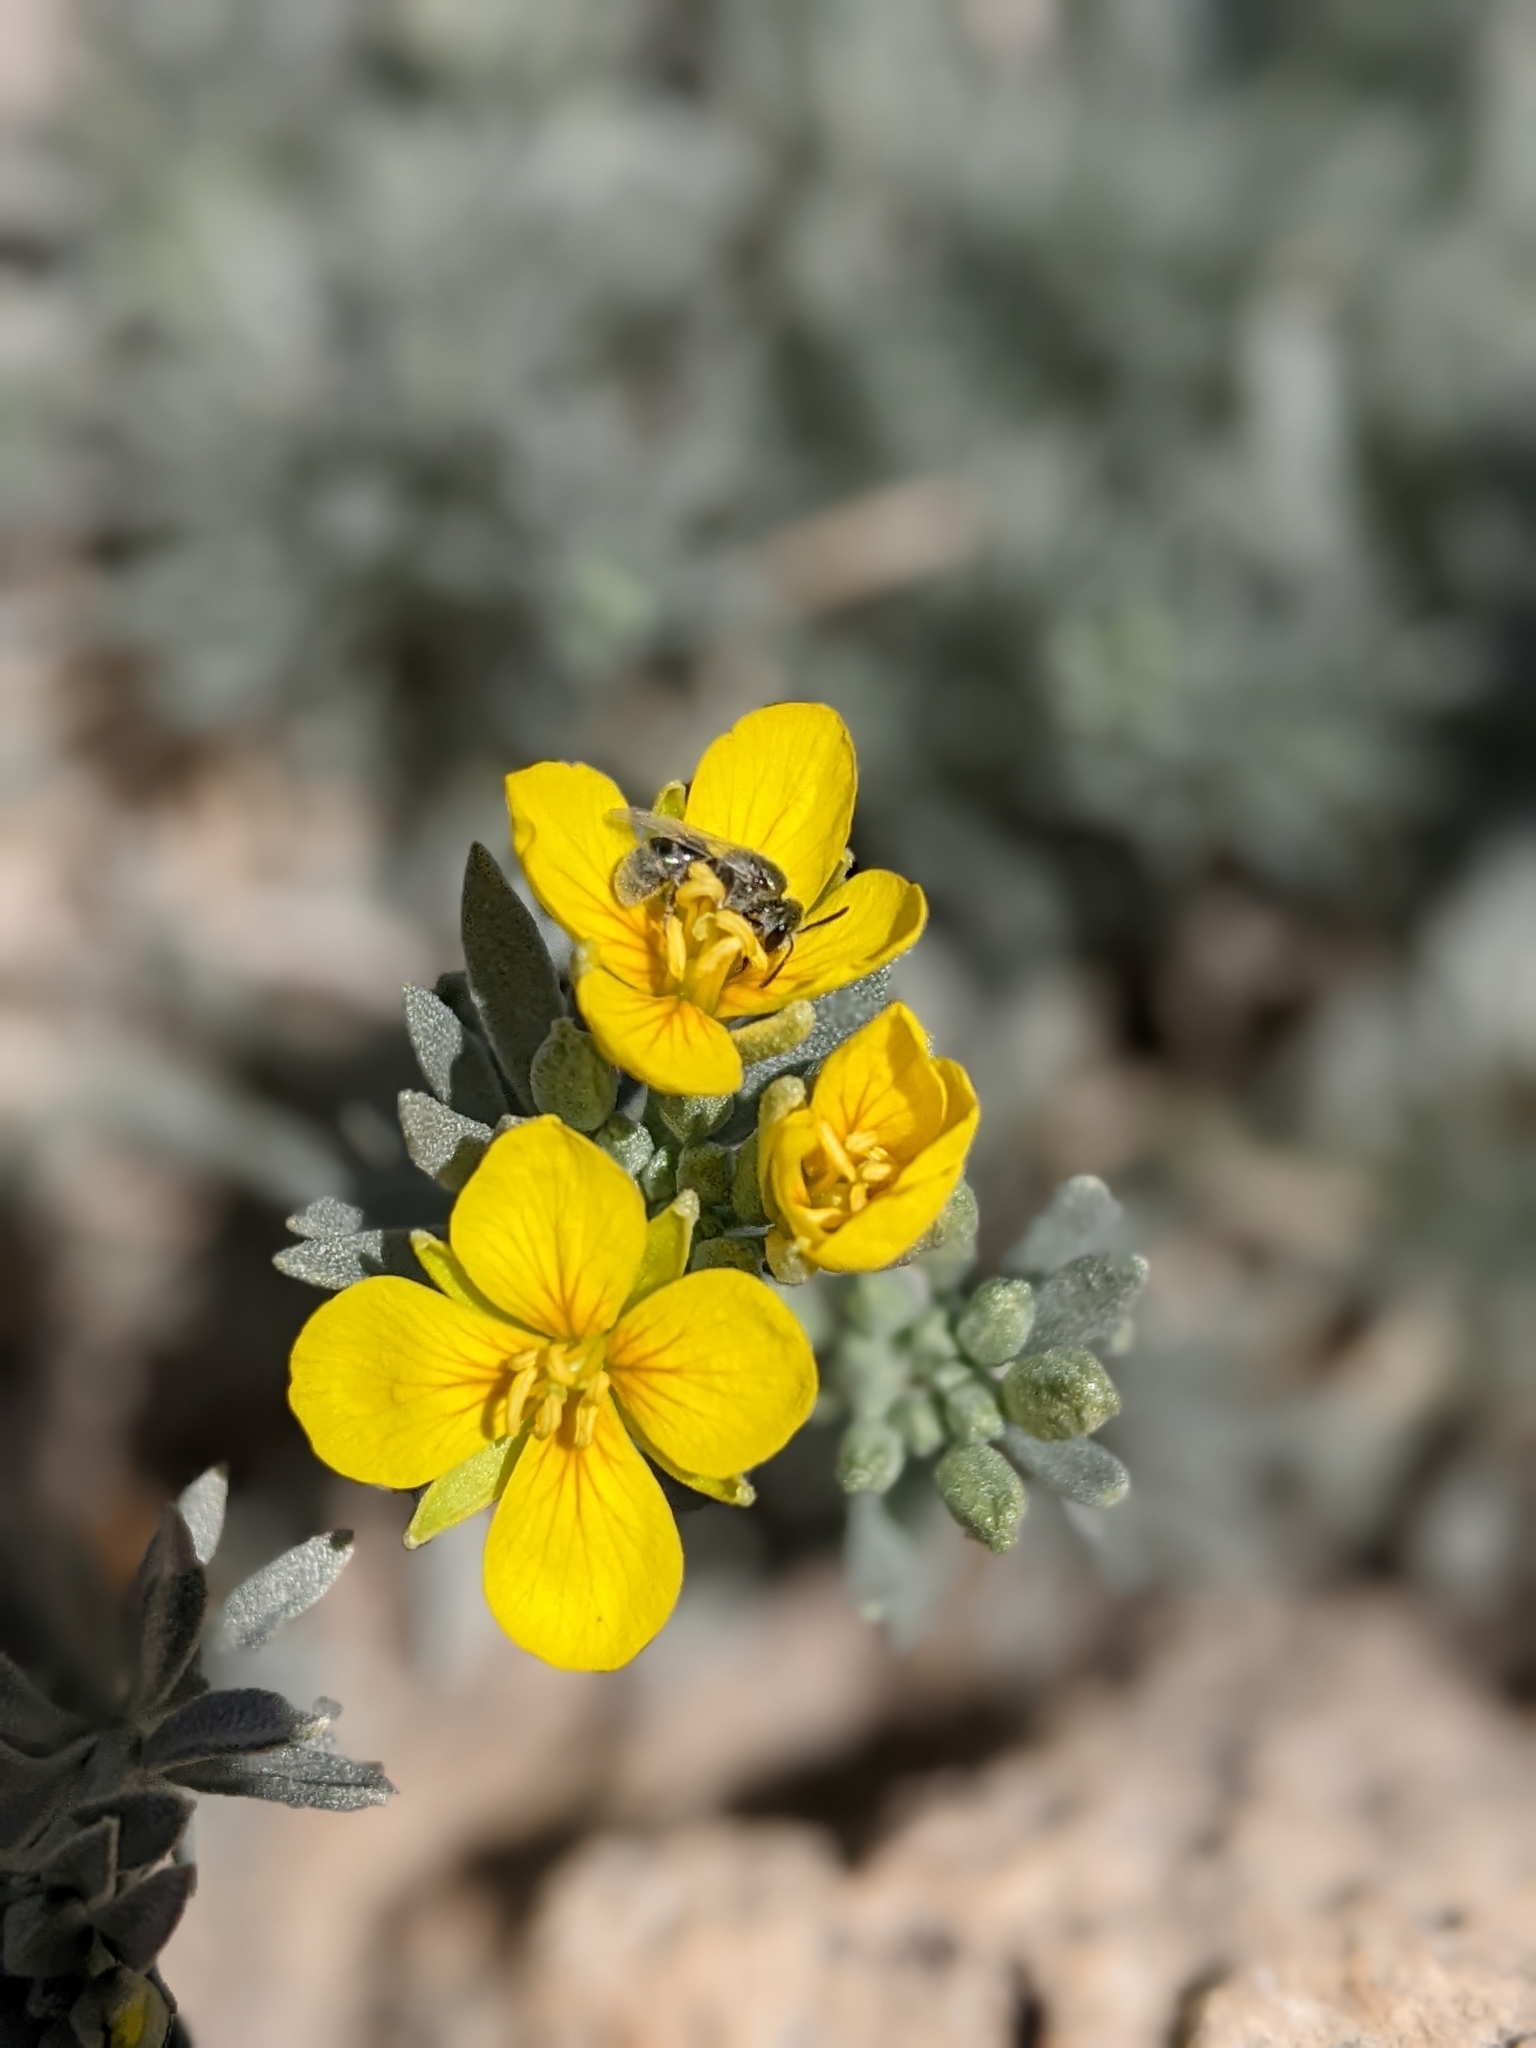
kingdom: Animalia
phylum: Arthropoda
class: Insecta
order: Hymenoptera
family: Halictidae
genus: Dialictus
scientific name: Dialictus
